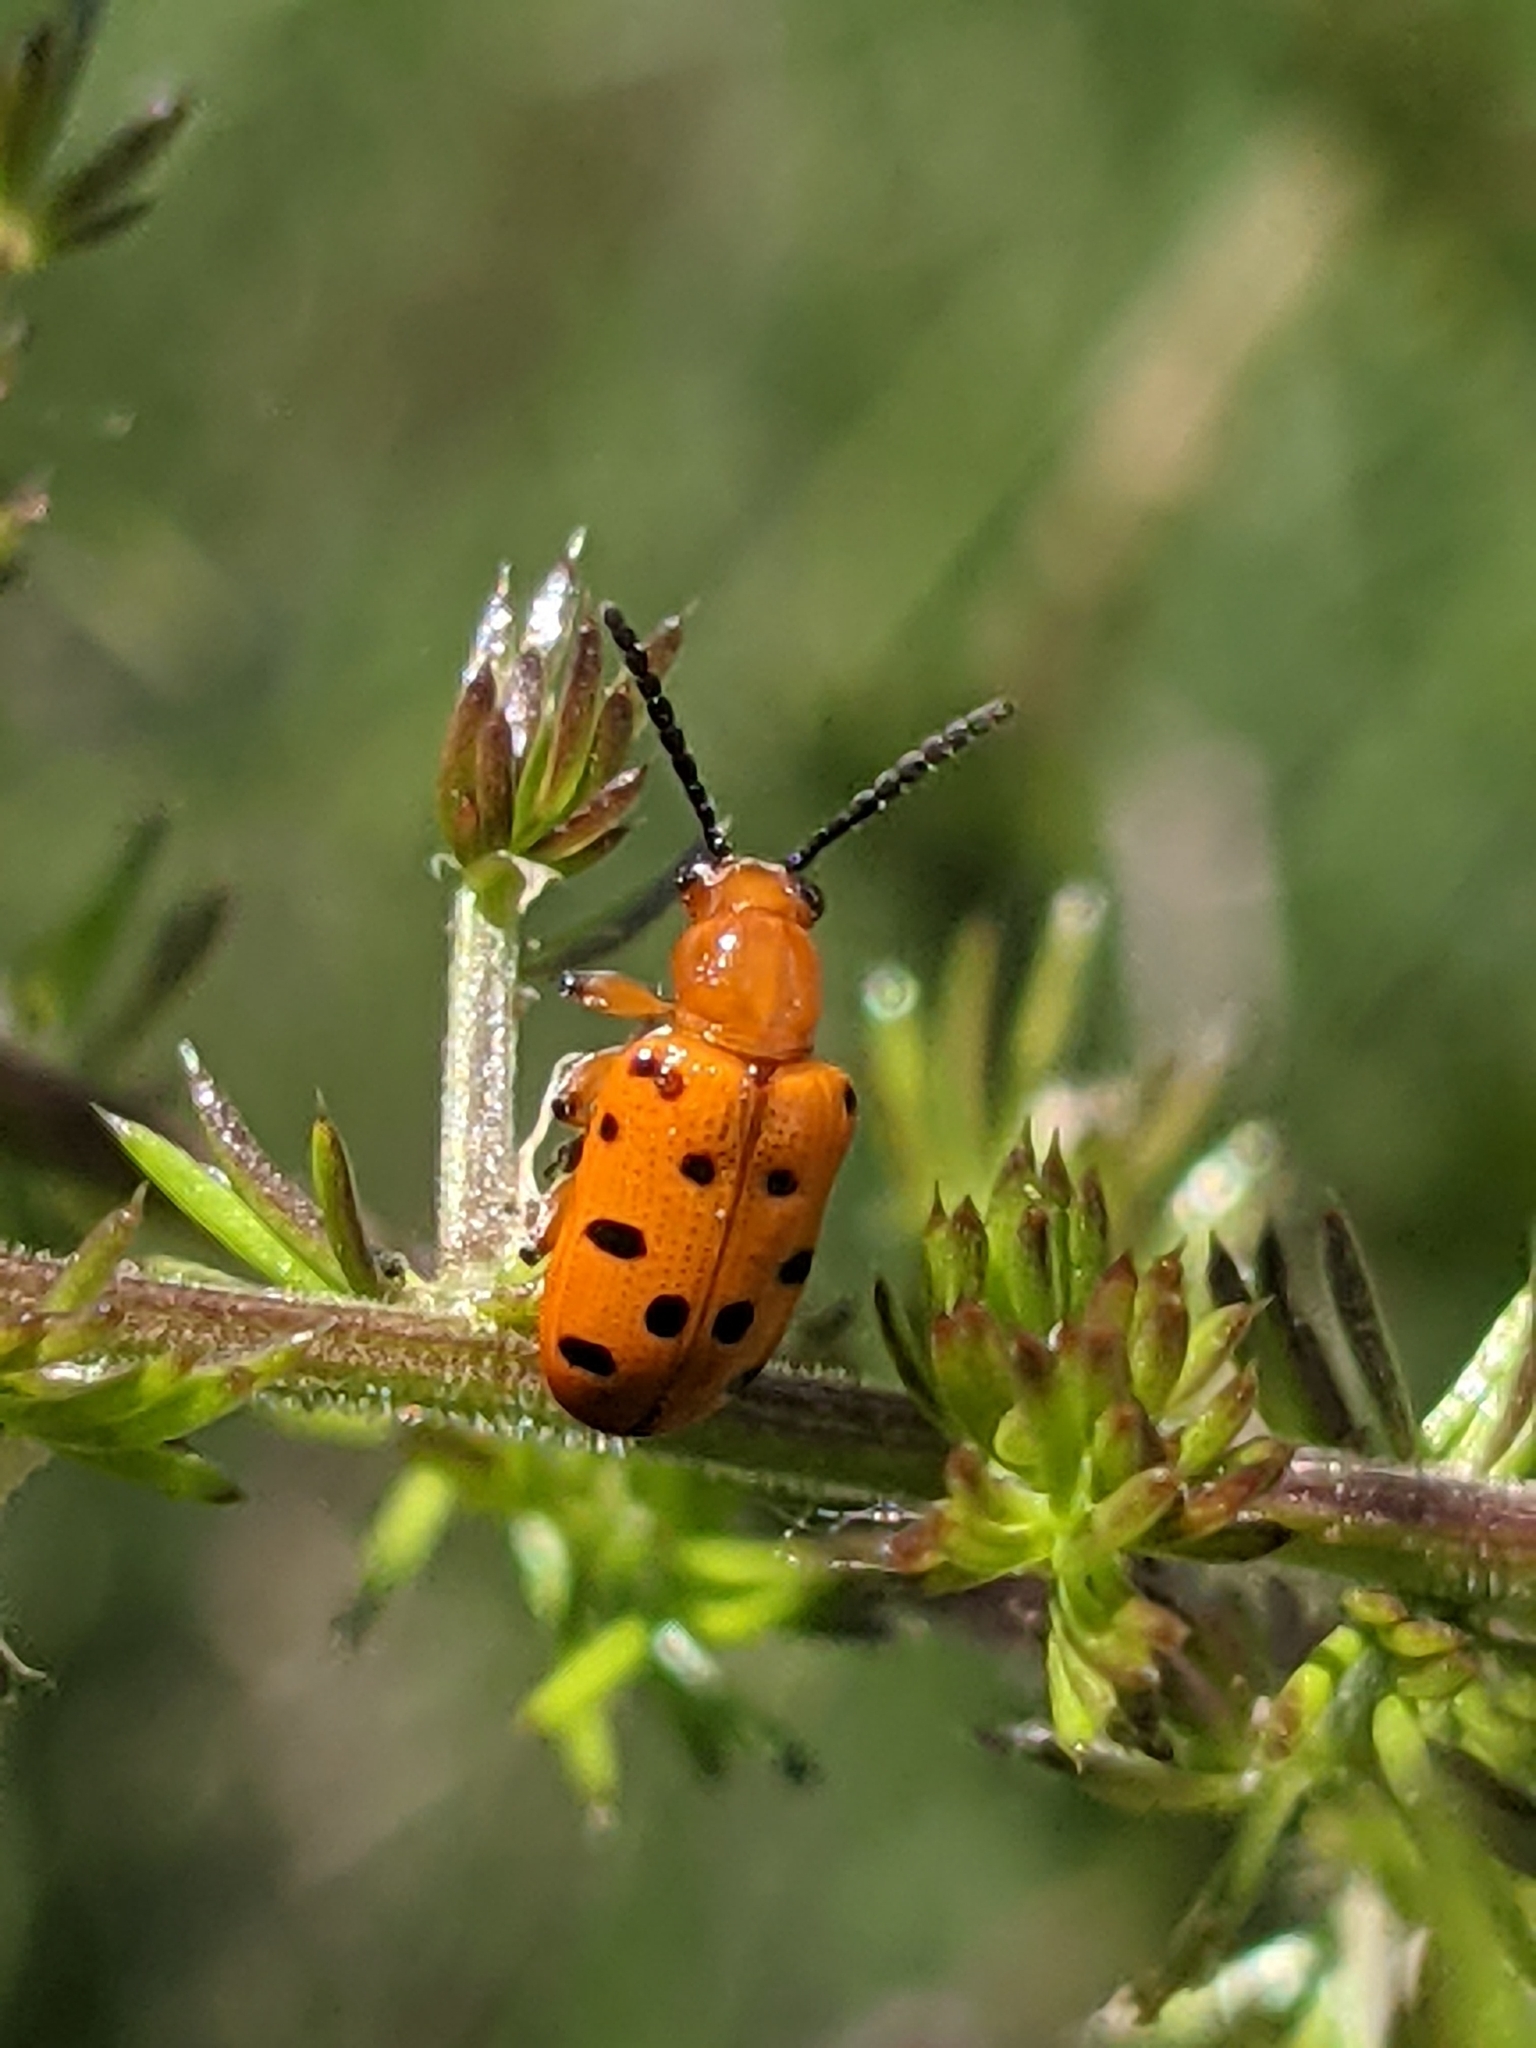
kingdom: Animalia
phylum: Arthropoda
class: Insecta
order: Coleoptera
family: Chrysomelidae
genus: Crioceris
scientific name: Crioceris duodecimpunctata
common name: Twelve-spotted asparagus beetle
